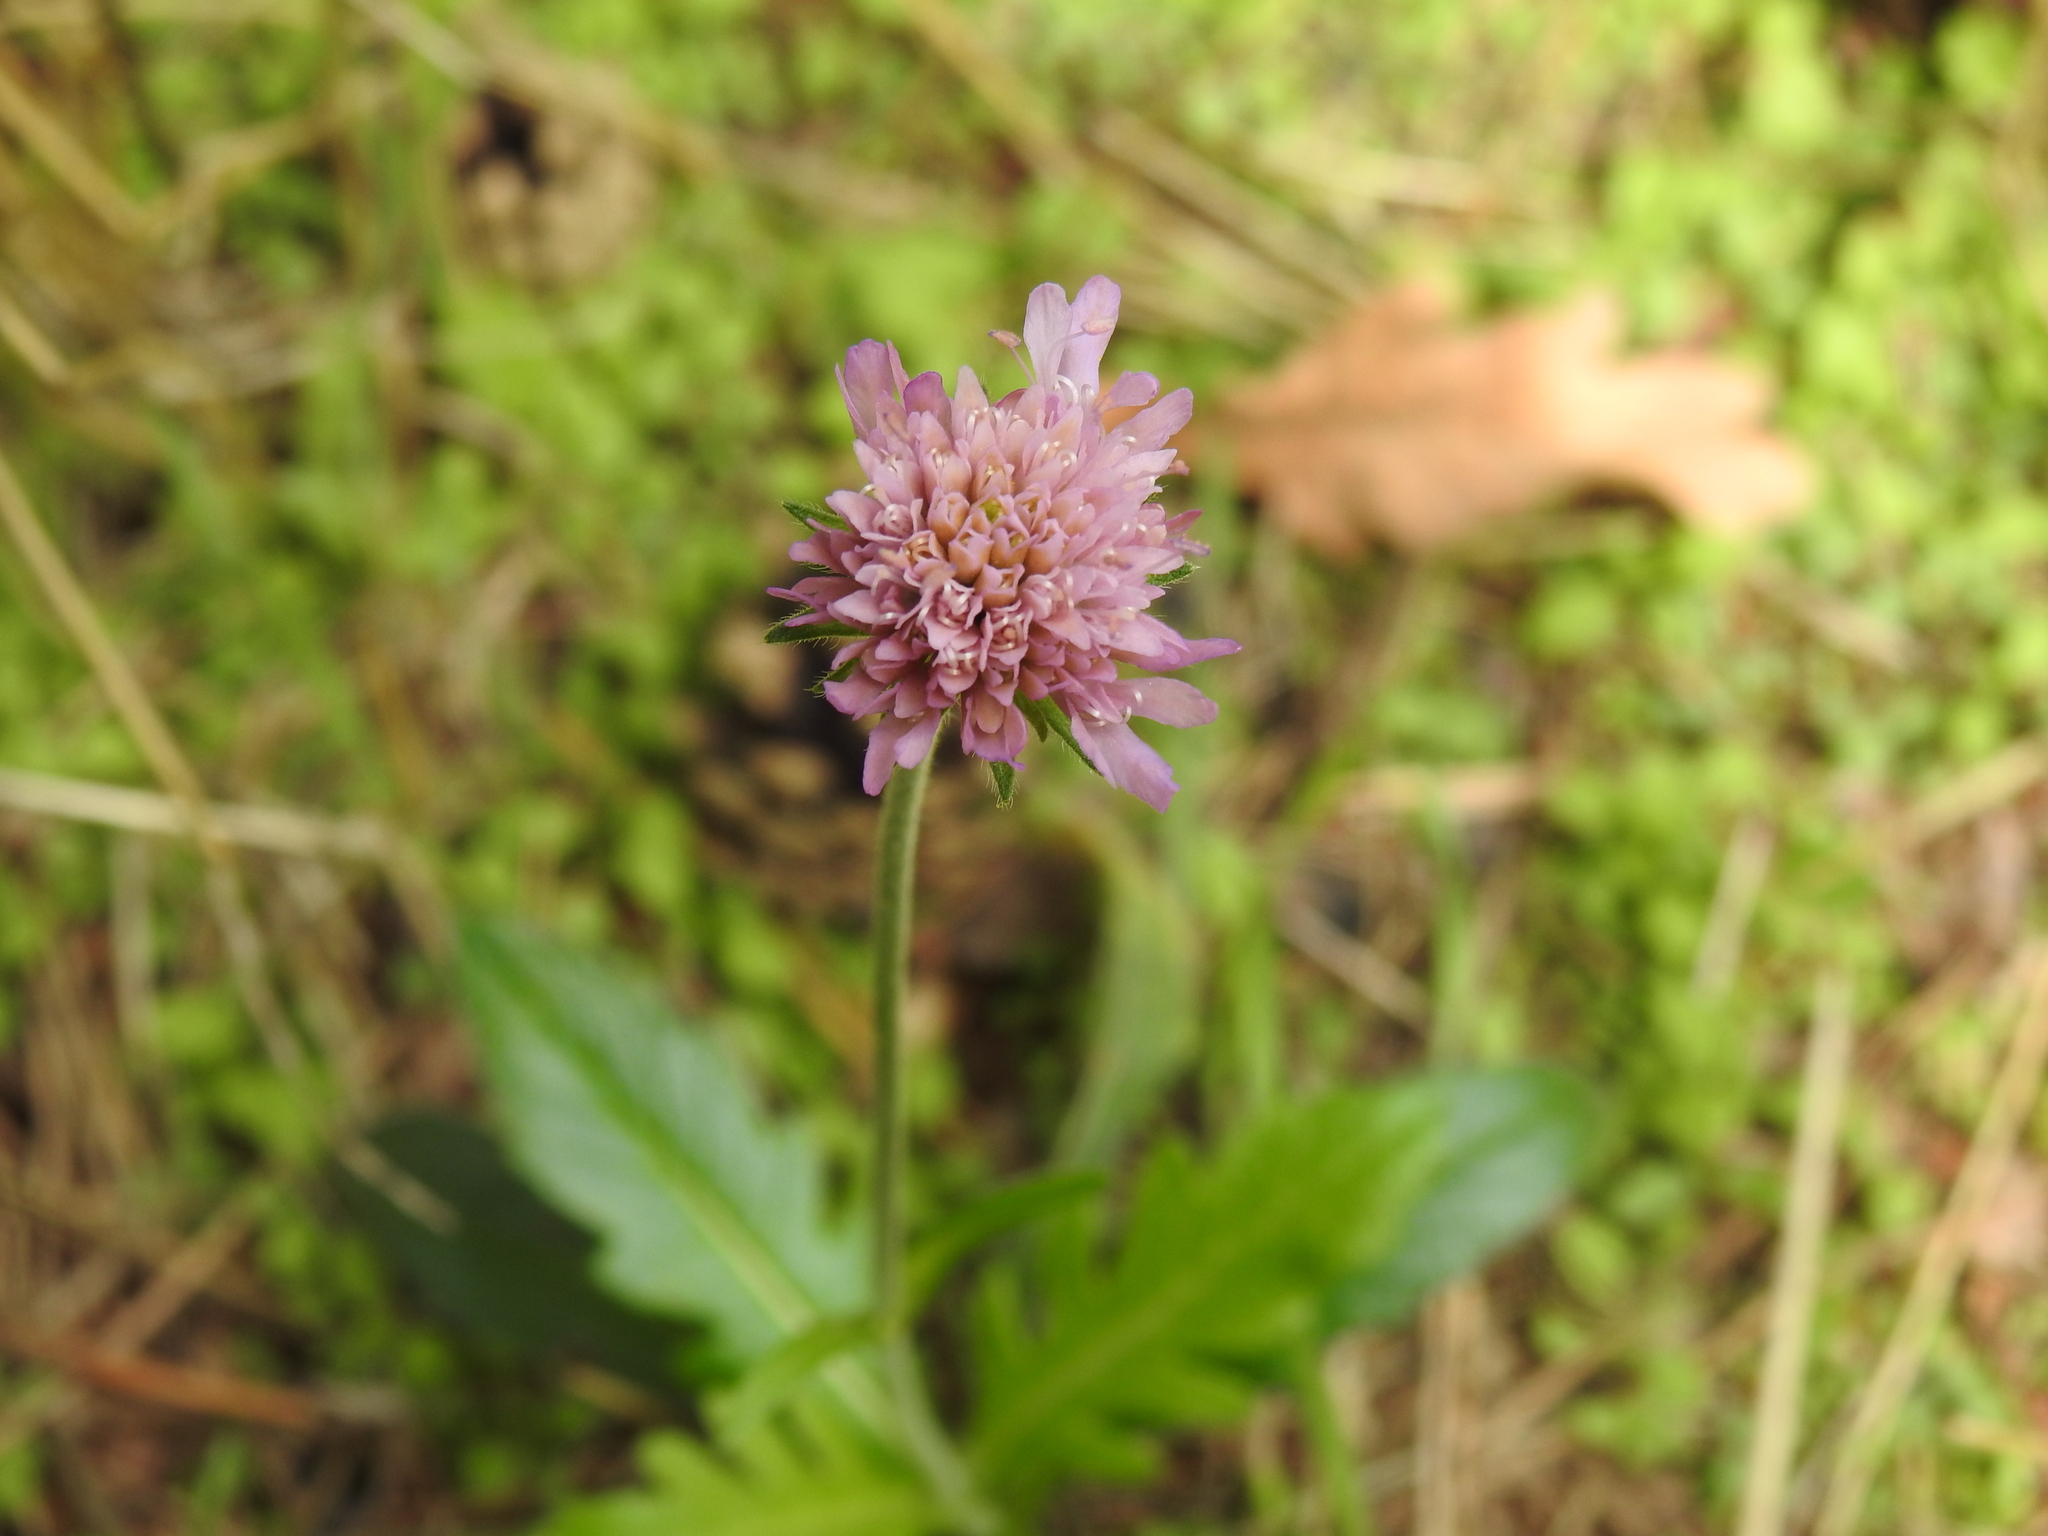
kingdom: Plantae
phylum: Tracheophyta
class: Magnoliopsida
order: Dipsacales
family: Caprifoliaceae
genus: Knautia
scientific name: Knautia arvensis
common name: Field scabiosa
